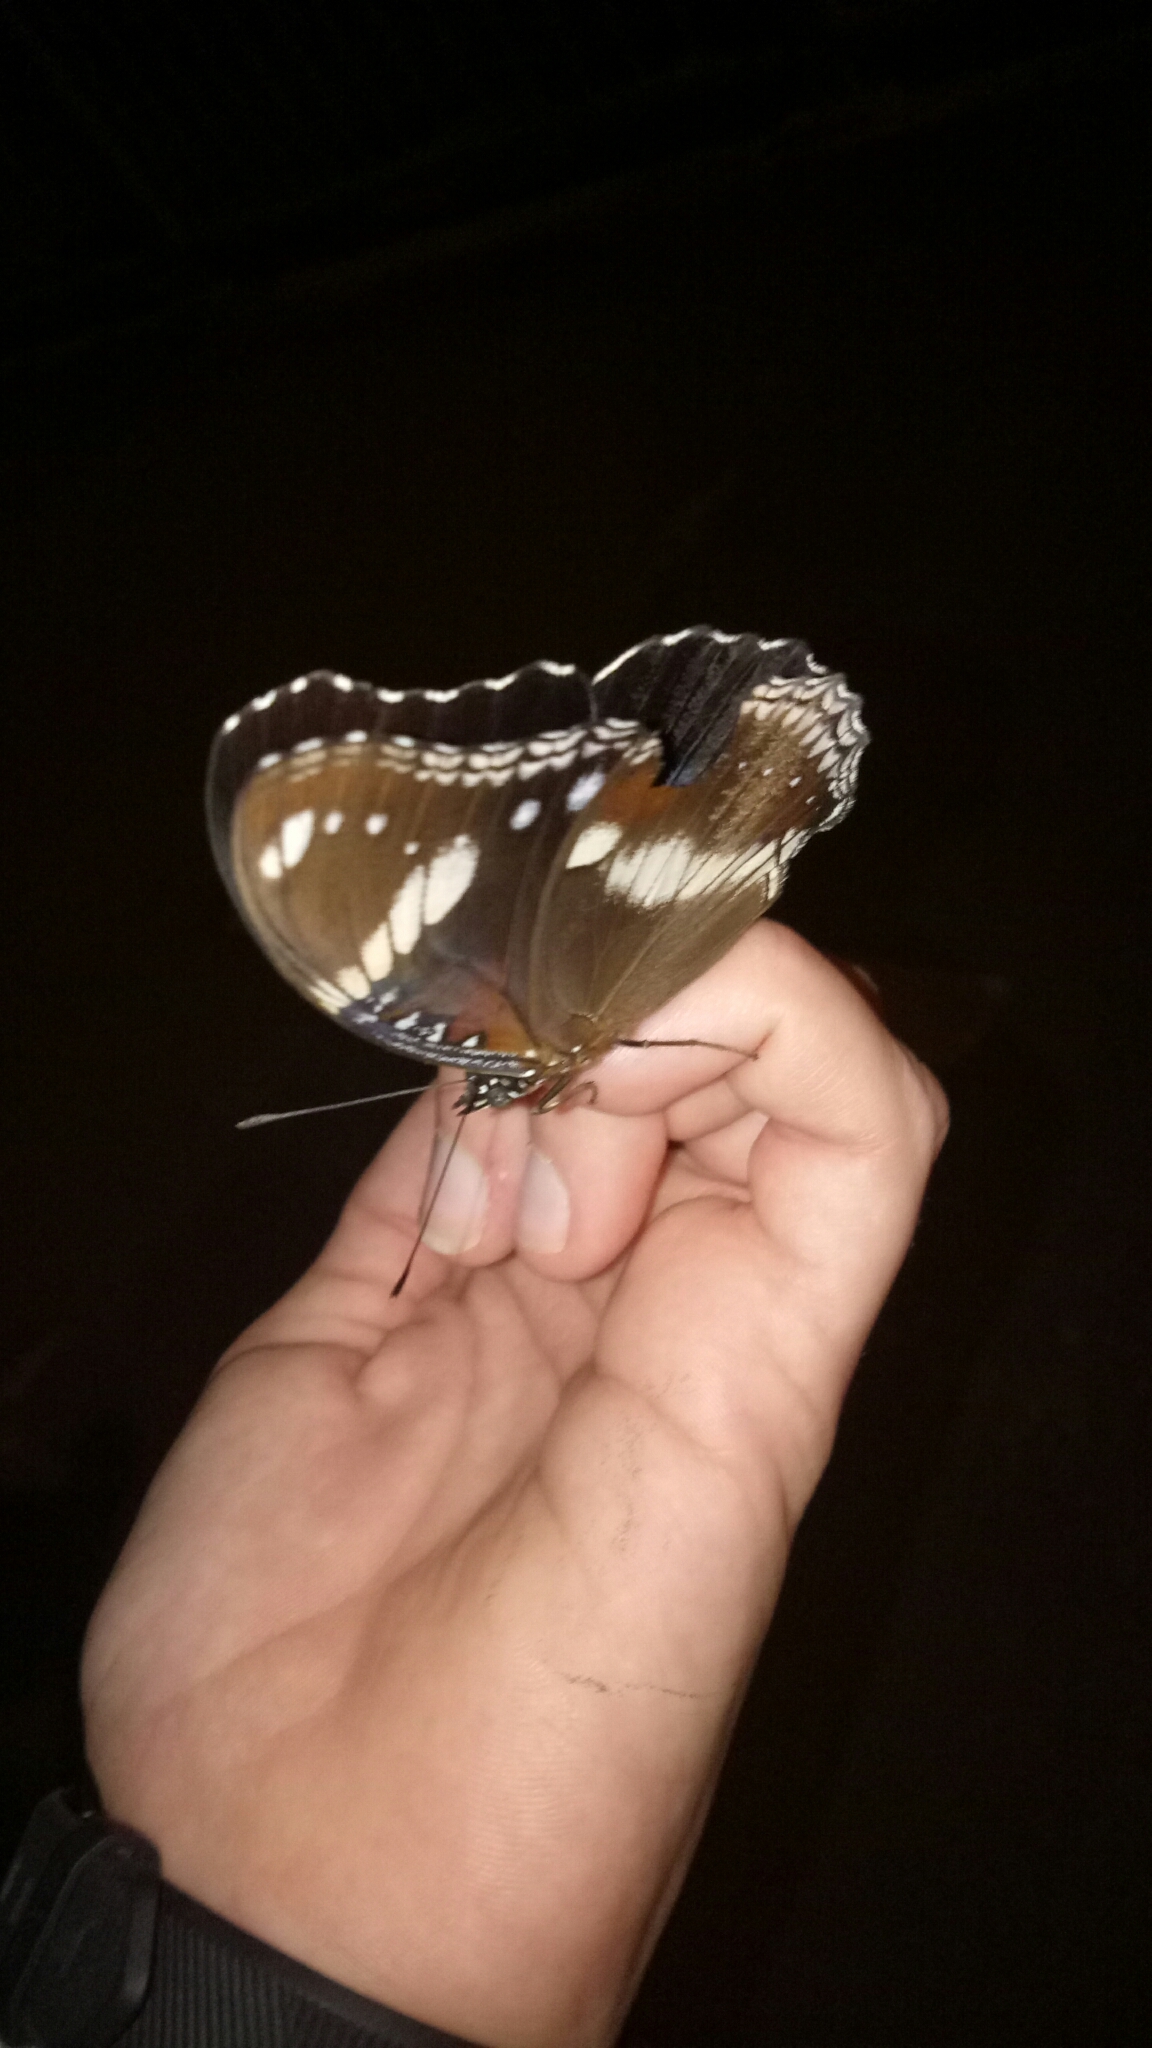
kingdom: Animalia
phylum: Arthropoda
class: Insecta
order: Lepidoptera
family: Nymphalidae
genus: Hypolimnas
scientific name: Hypolimnas bolina
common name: Great eggfly
